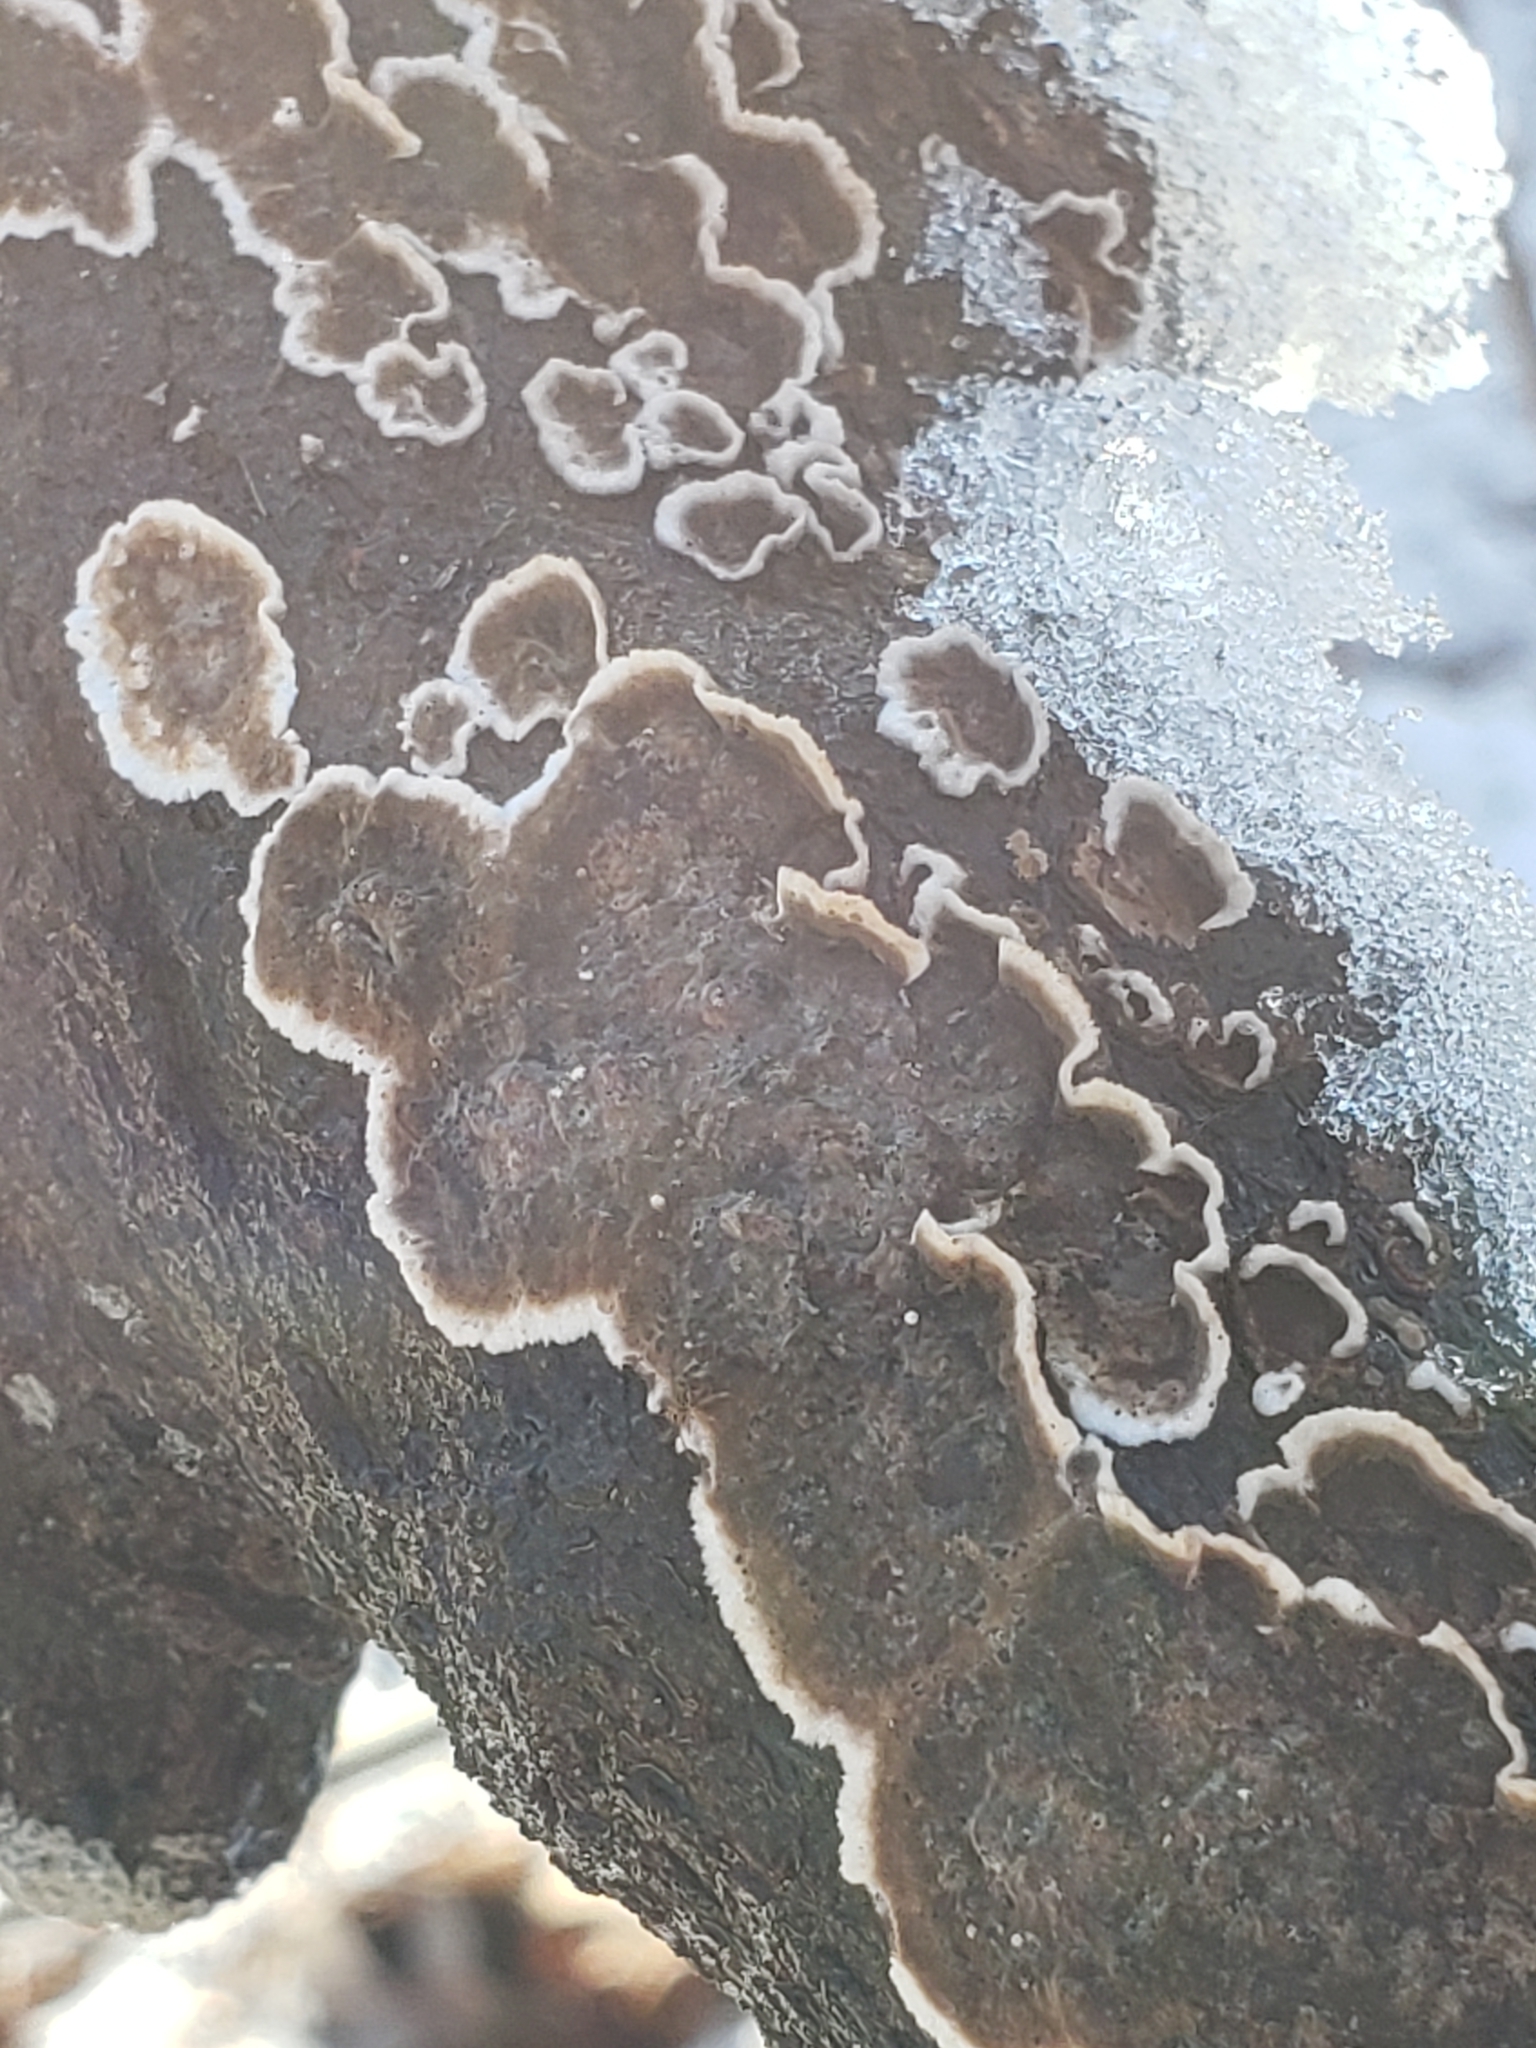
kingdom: Fungi
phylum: Basidiomycota
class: Agaricomycetes
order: Russulales
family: Peniophoraceae
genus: Peniophora
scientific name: Peniophora albobadia
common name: Giraffe spots
